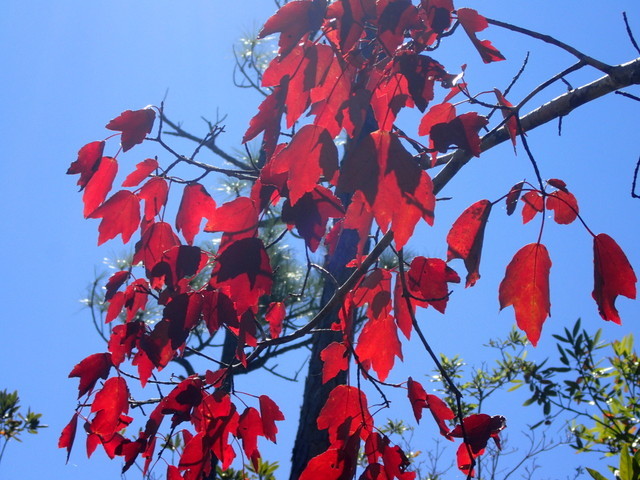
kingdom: Plantae
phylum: Tracheophyta
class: Magnoliopsida
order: Sapindales
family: Sapindaceae
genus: Acer
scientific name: Acer rubrum
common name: Red maple
